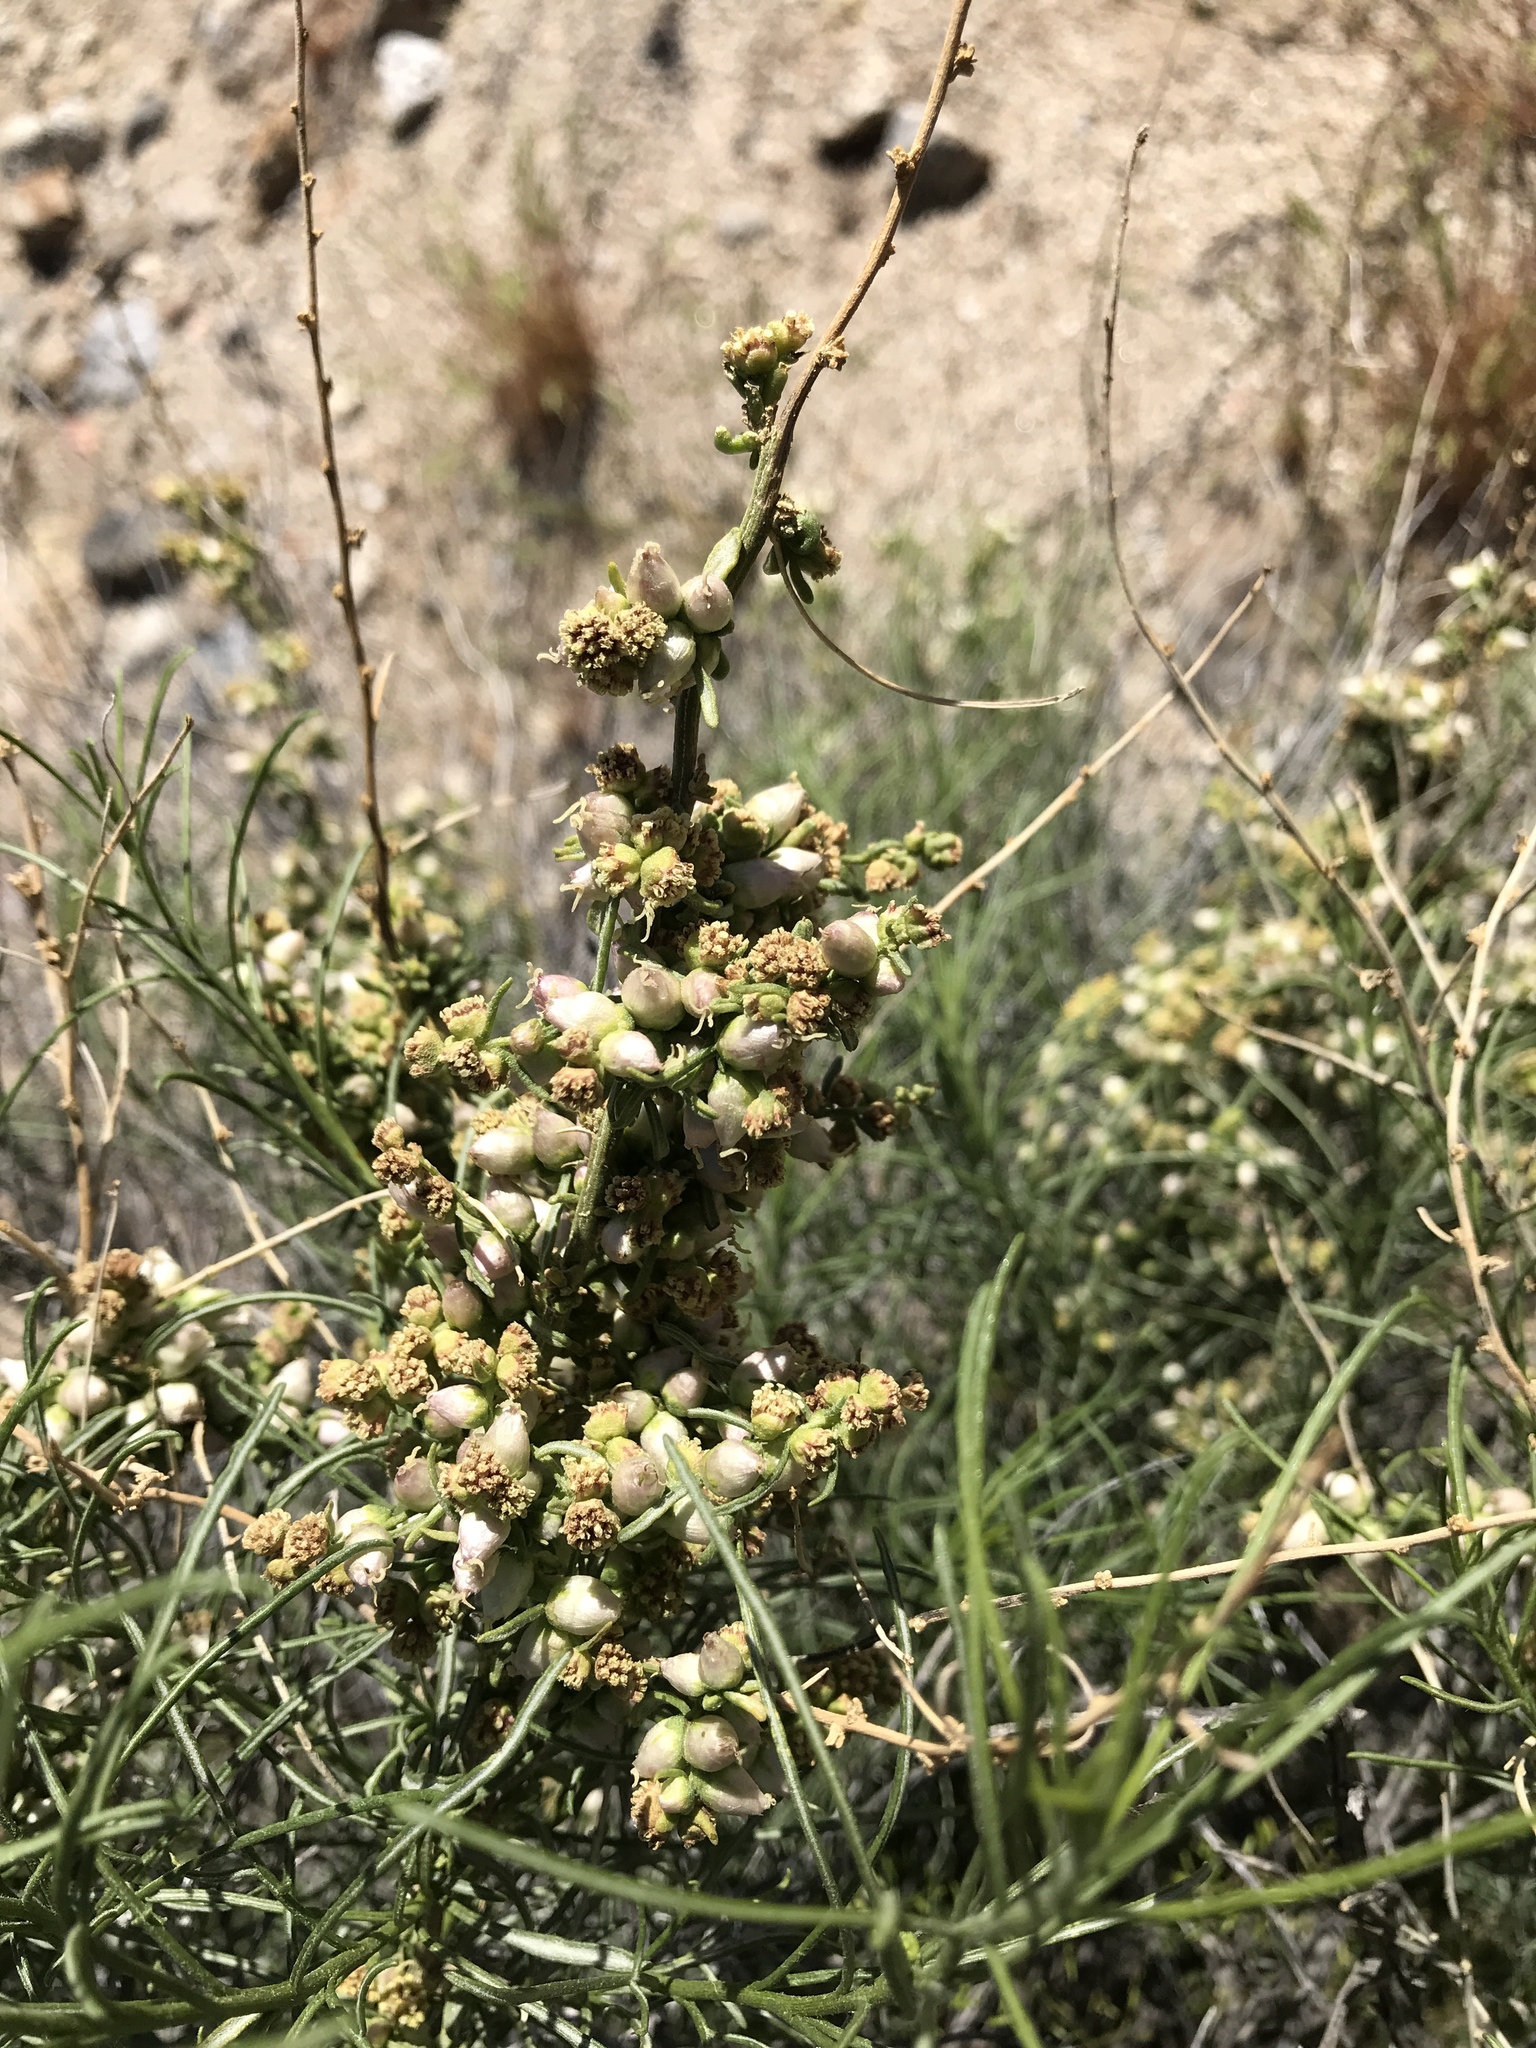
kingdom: Plantae
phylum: Tracheophyta
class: Magnoliopsida
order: Asterales
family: Asteraceae
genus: Ambrosia
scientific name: Ambrosia salsola
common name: Burrobrush
